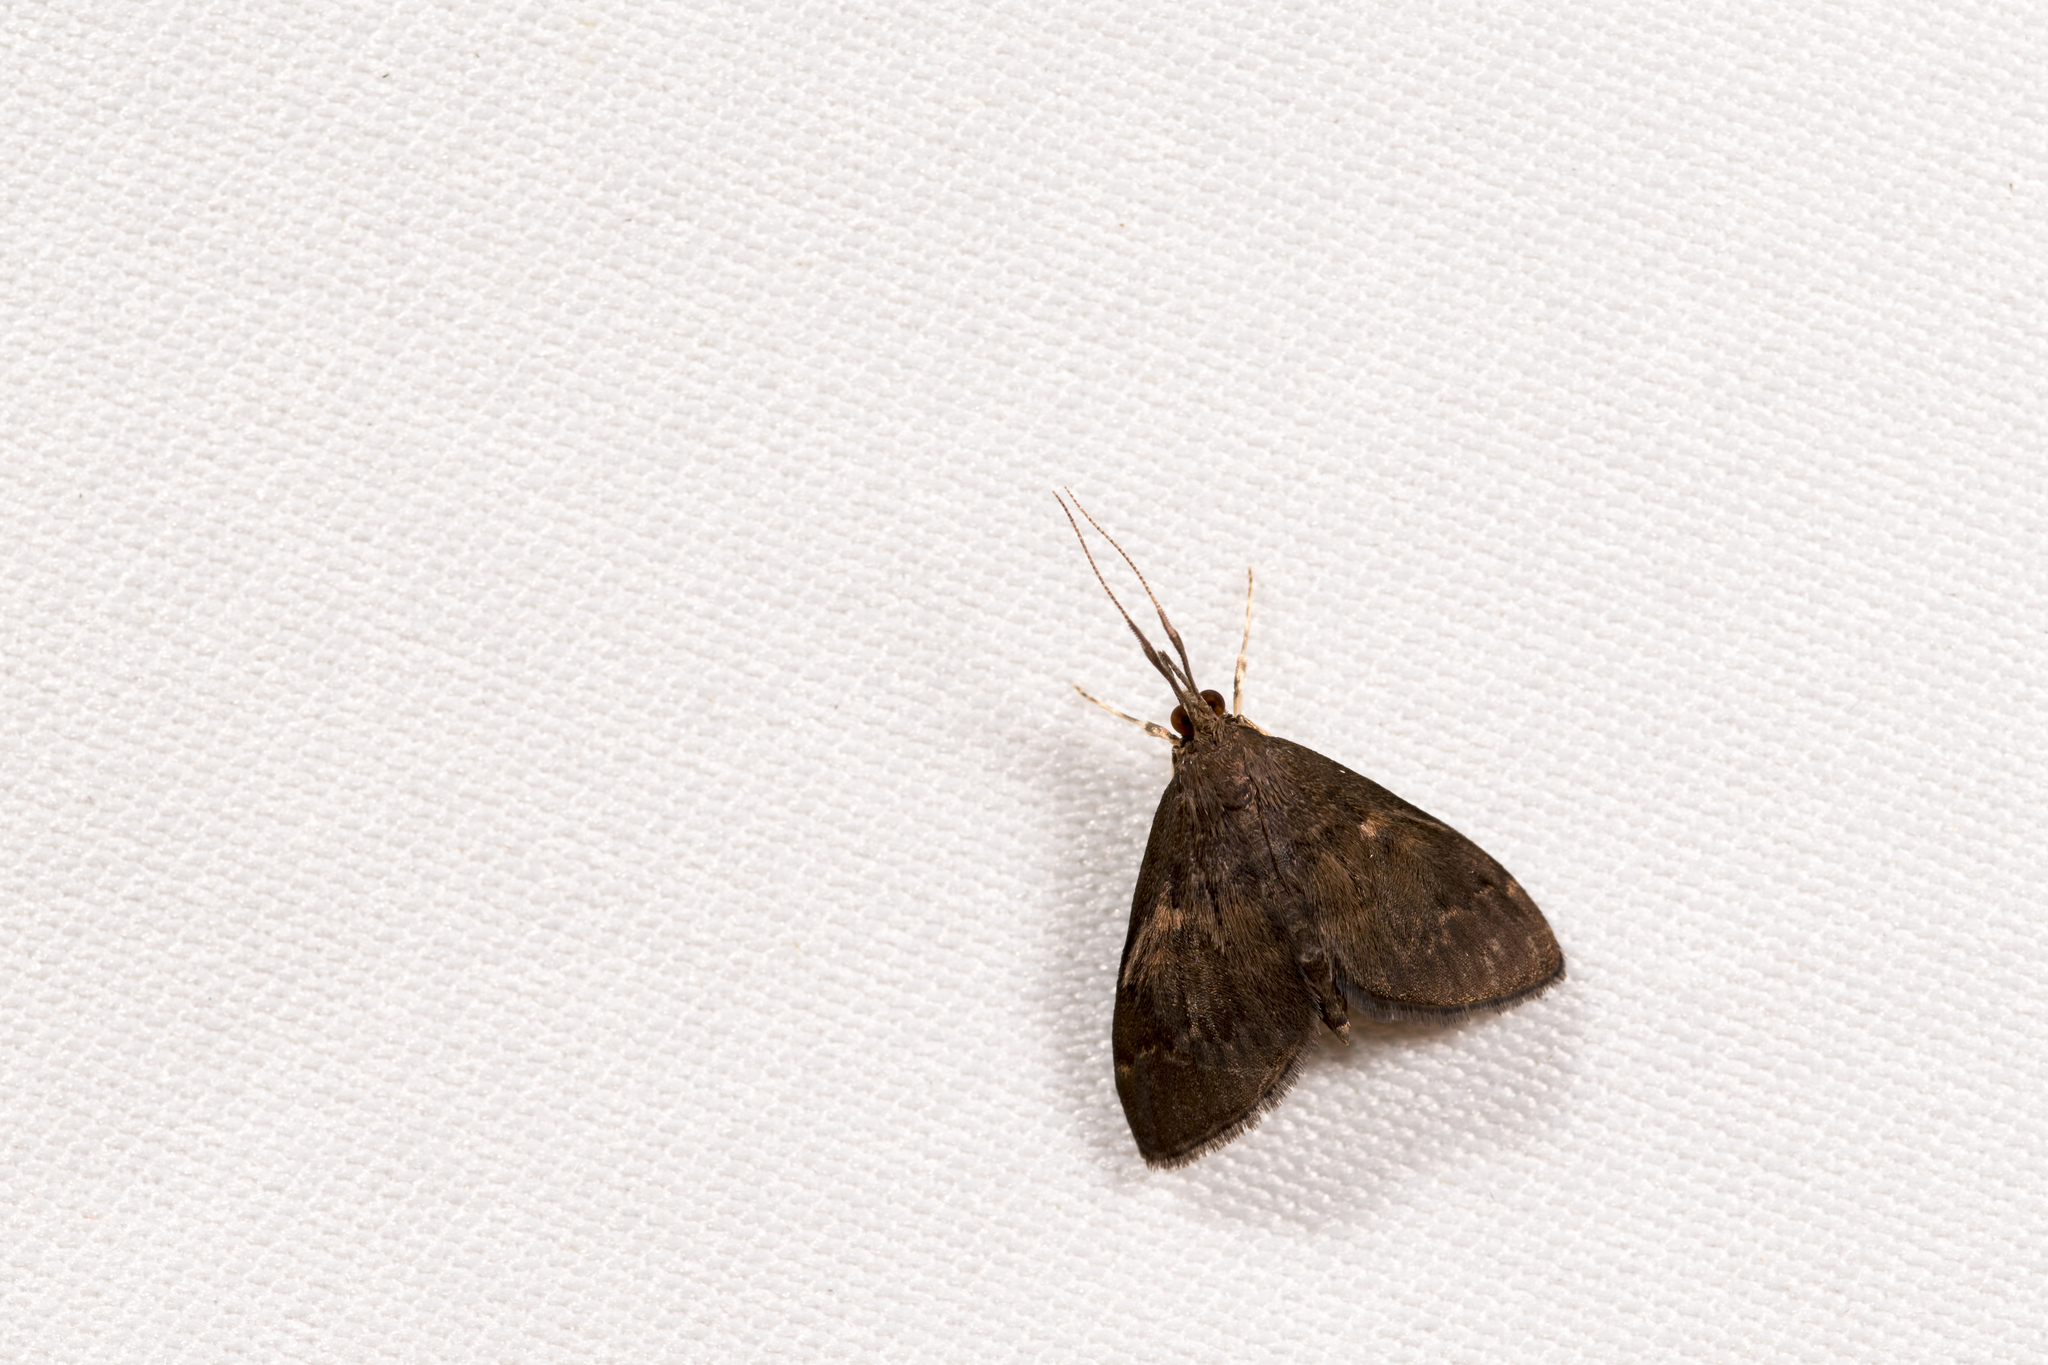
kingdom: Animalia
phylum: Arthropoda
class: Insecta
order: Lepidoptera
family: Crambidae
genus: Camptomastix
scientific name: Camptomastix hisbonalis
